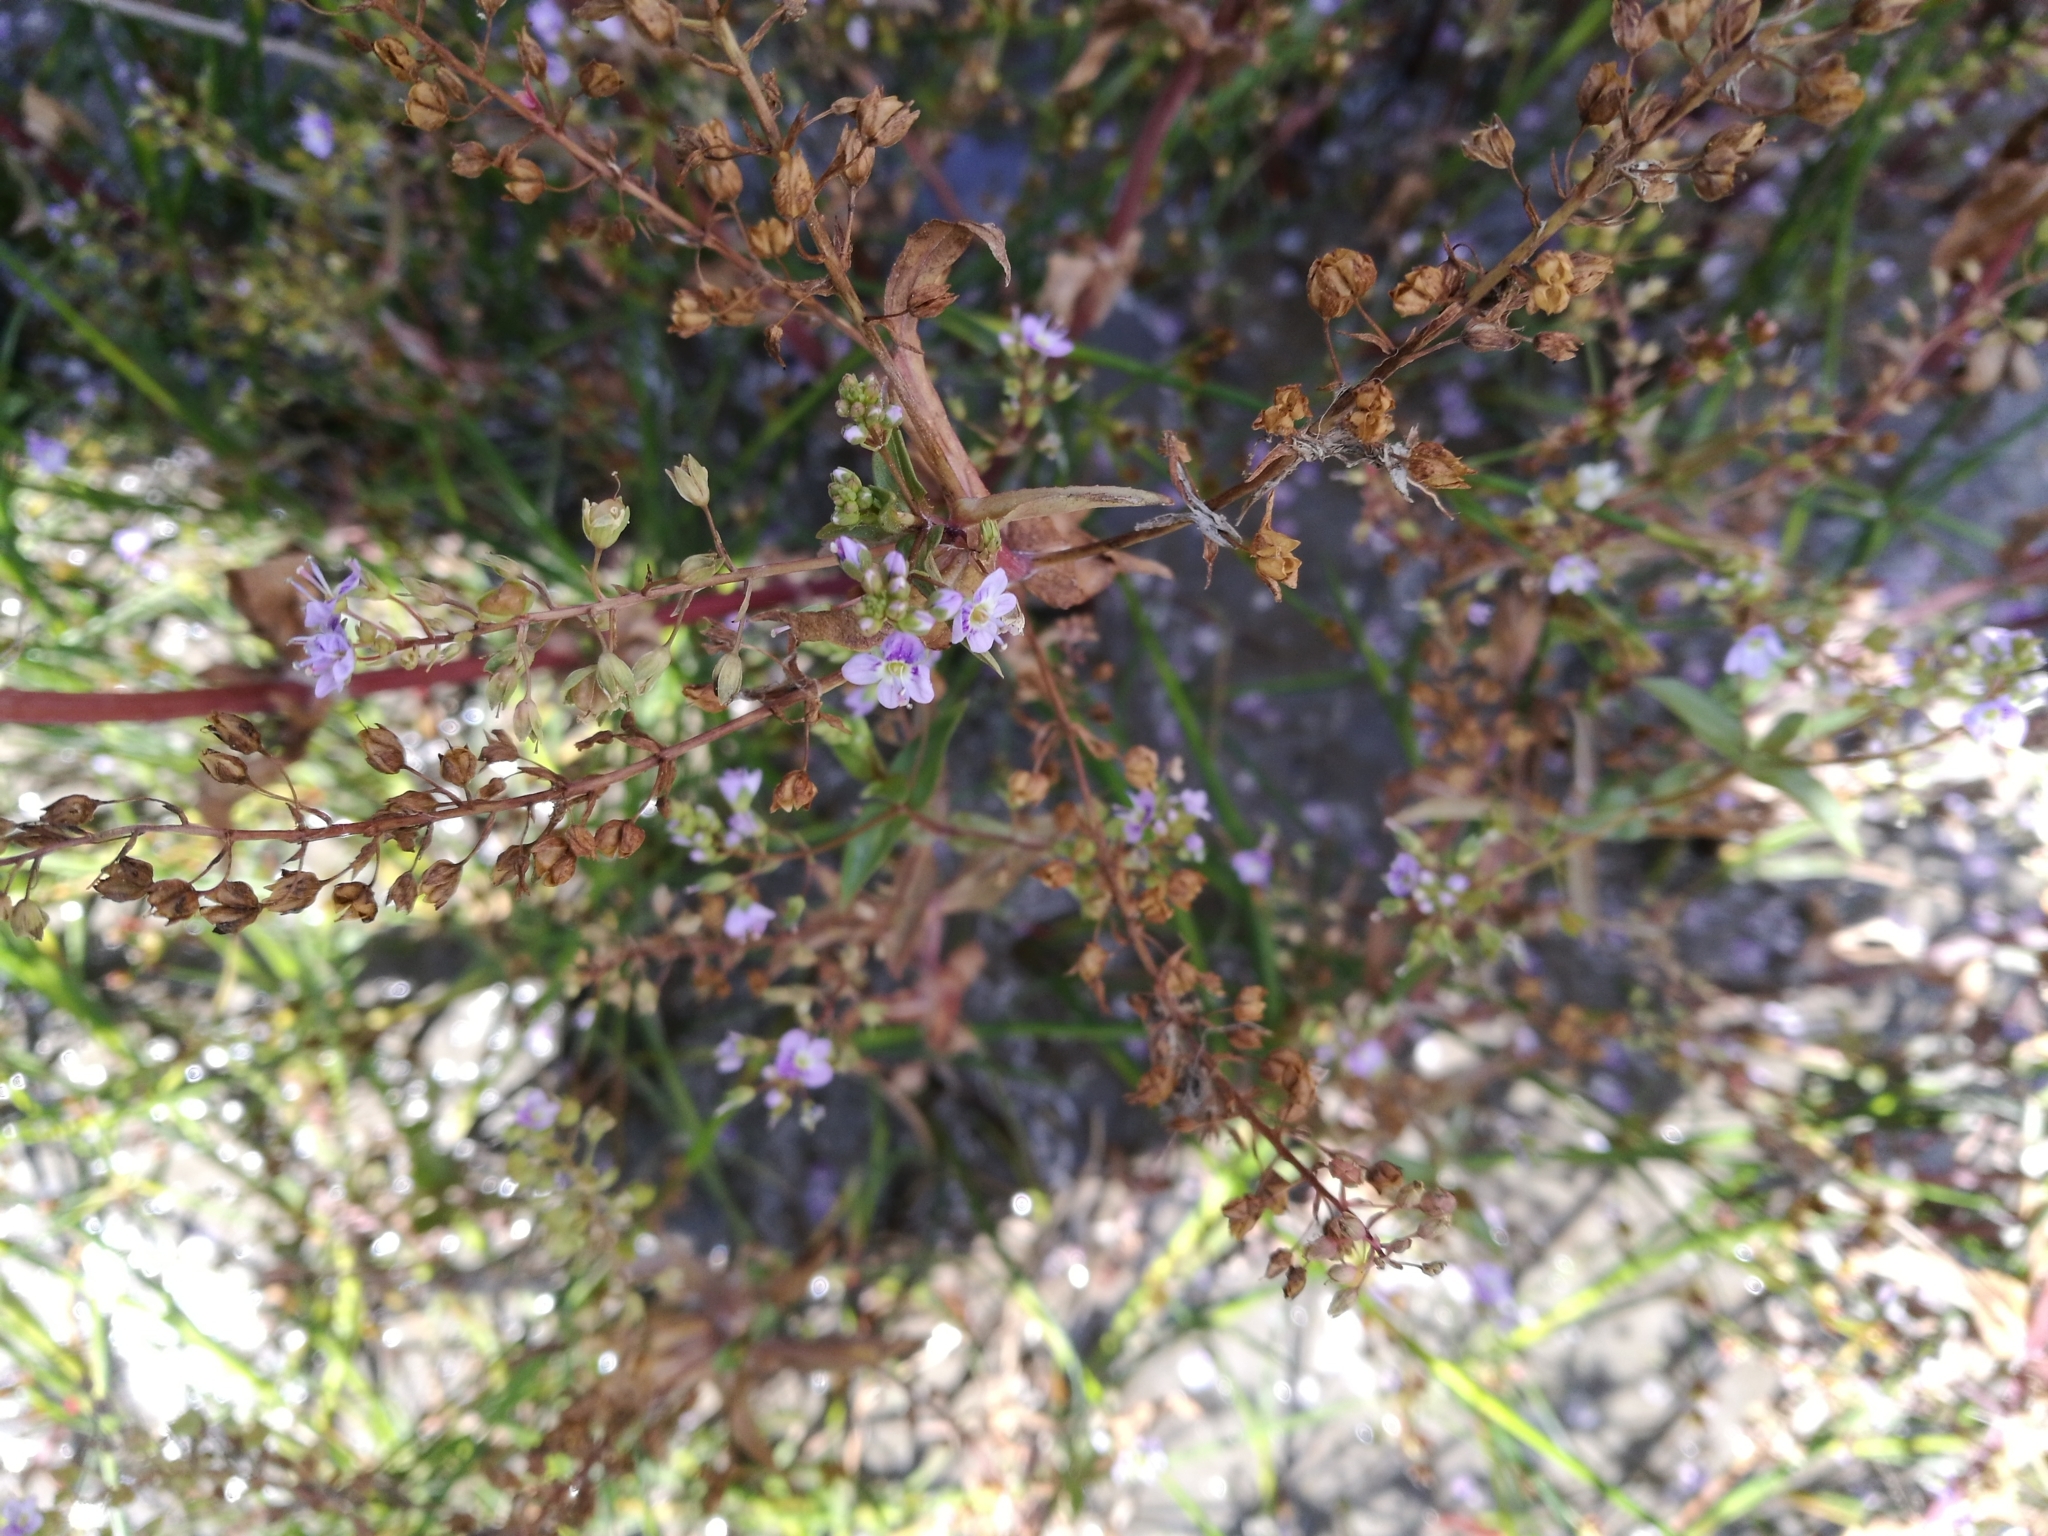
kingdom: Plantae
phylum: Tracheophyta
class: Magnoliopsida
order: Lamiales
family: Plantaginaceae
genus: Veronica
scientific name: Veronica anagallis-aquatica
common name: Water speedwell
